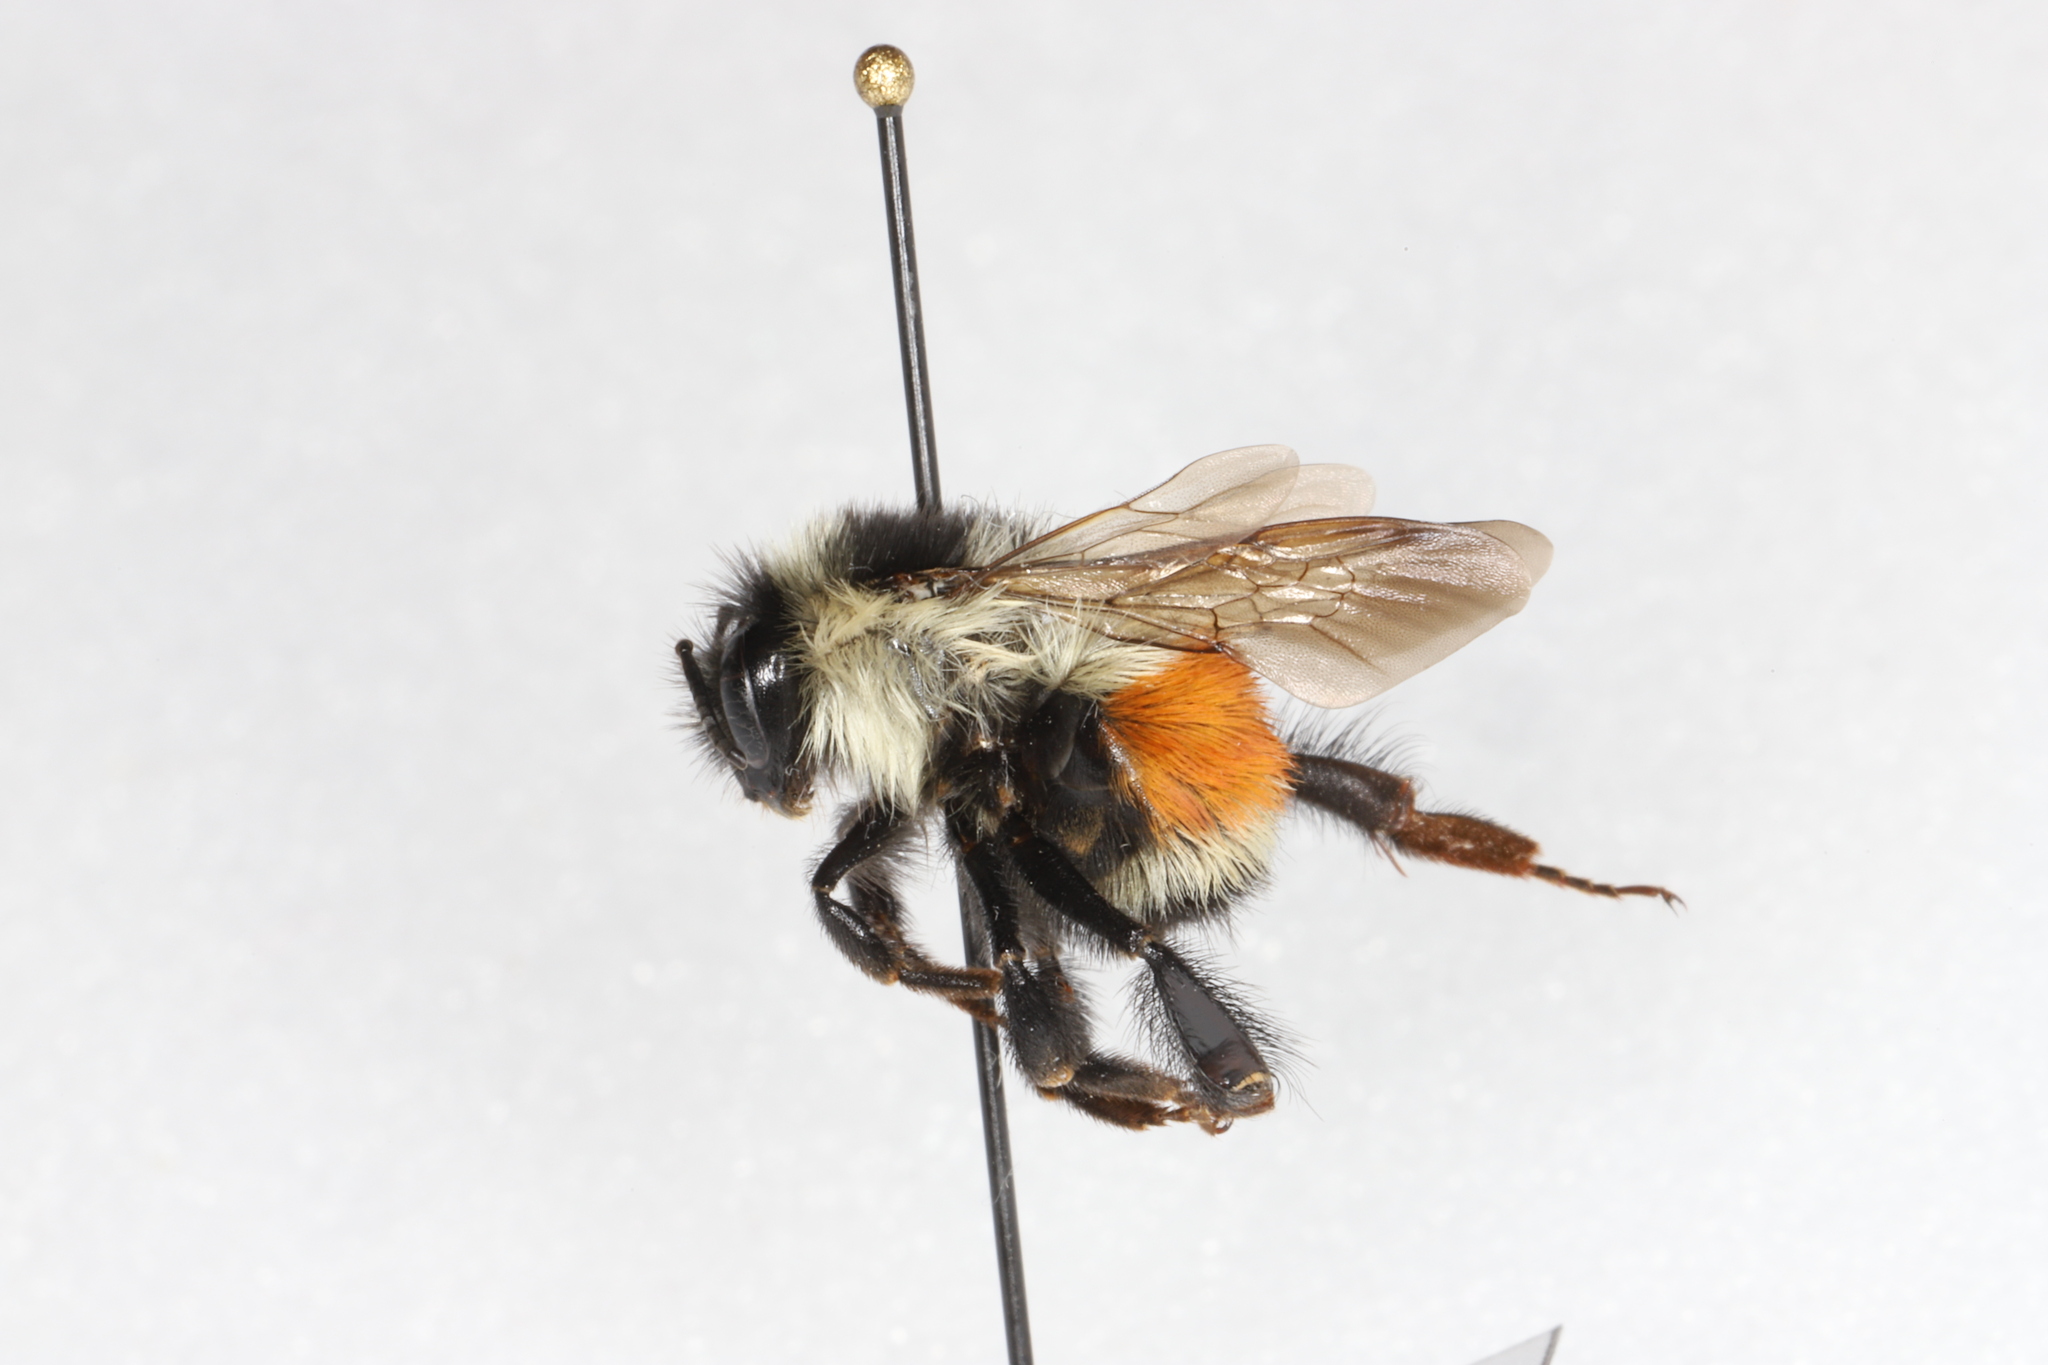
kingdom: Animalia
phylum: Arthropoda
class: Insecta
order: Hymenoptera
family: Apidae
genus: Bombus
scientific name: Bombus ternarius
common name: Tri-colored bumble bee
